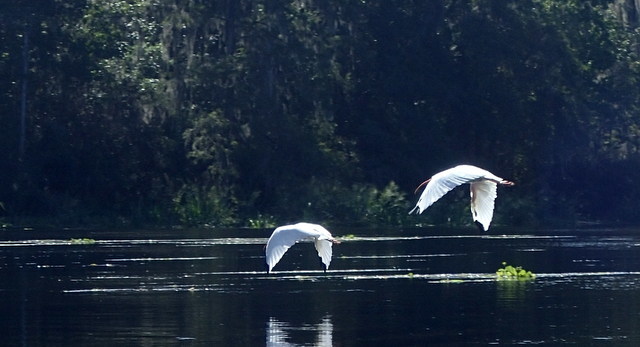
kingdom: Animalia
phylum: Chordata
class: Aves
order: Pelecaniformes
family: Threskiornithidae
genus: Eudocimus
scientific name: Eudocimus albus
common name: White ibis
